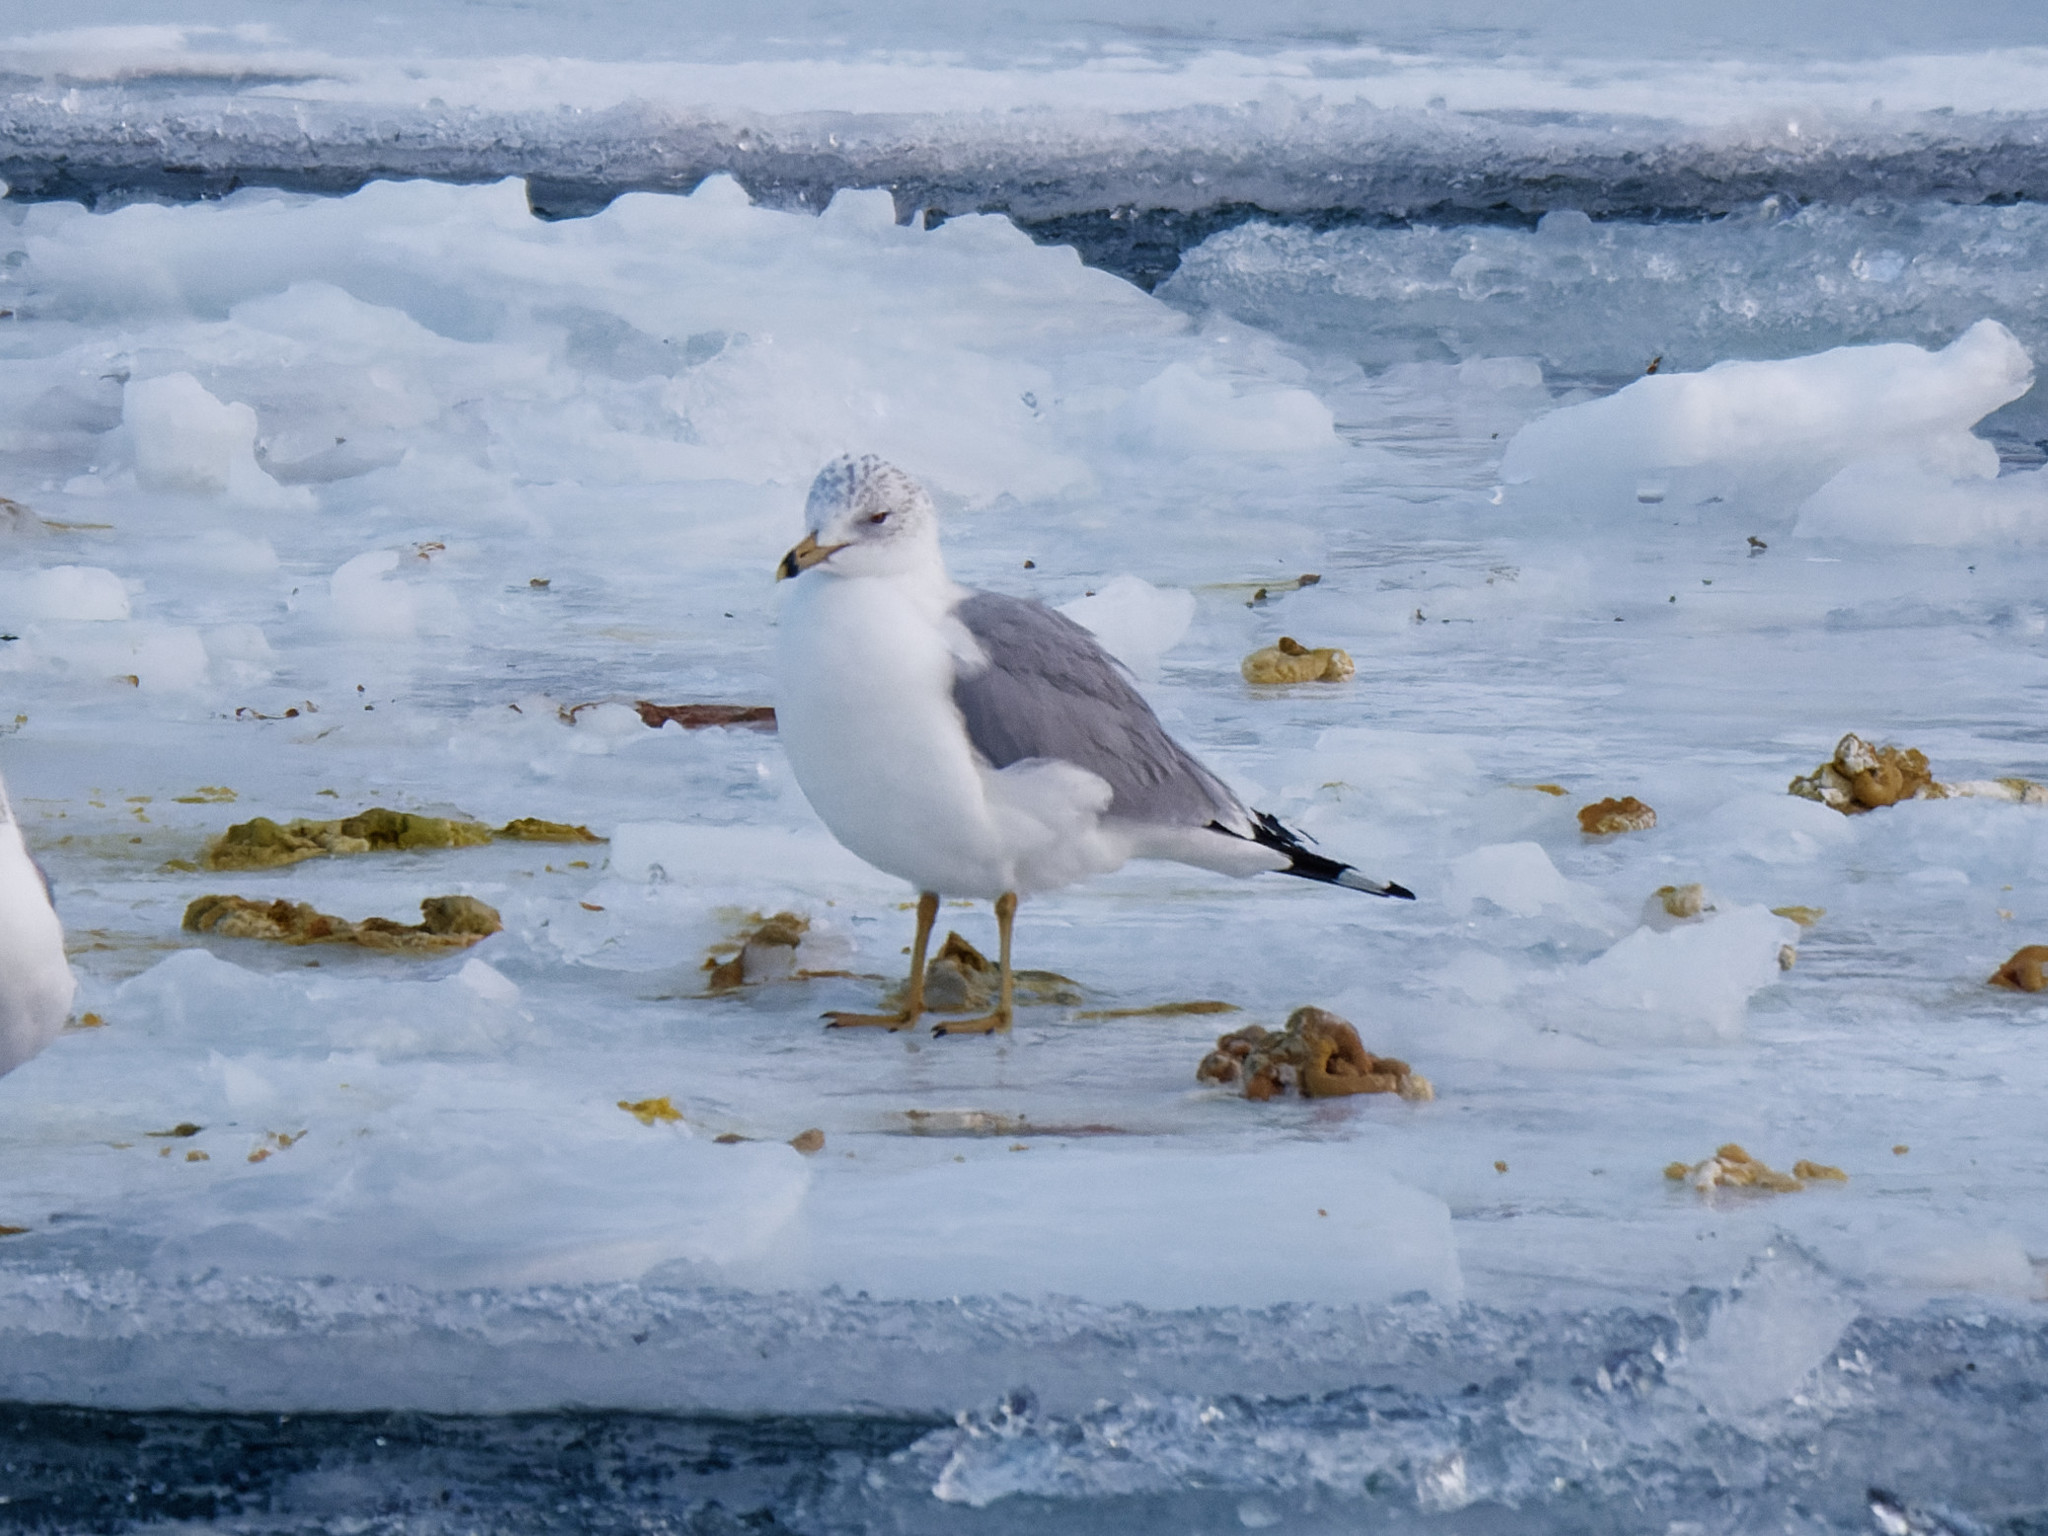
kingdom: Animalia
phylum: Chordata
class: Aves
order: Charadriiformes
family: Laridae
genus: Larus
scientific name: Larus delawarensis
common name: Ring-billed gull
